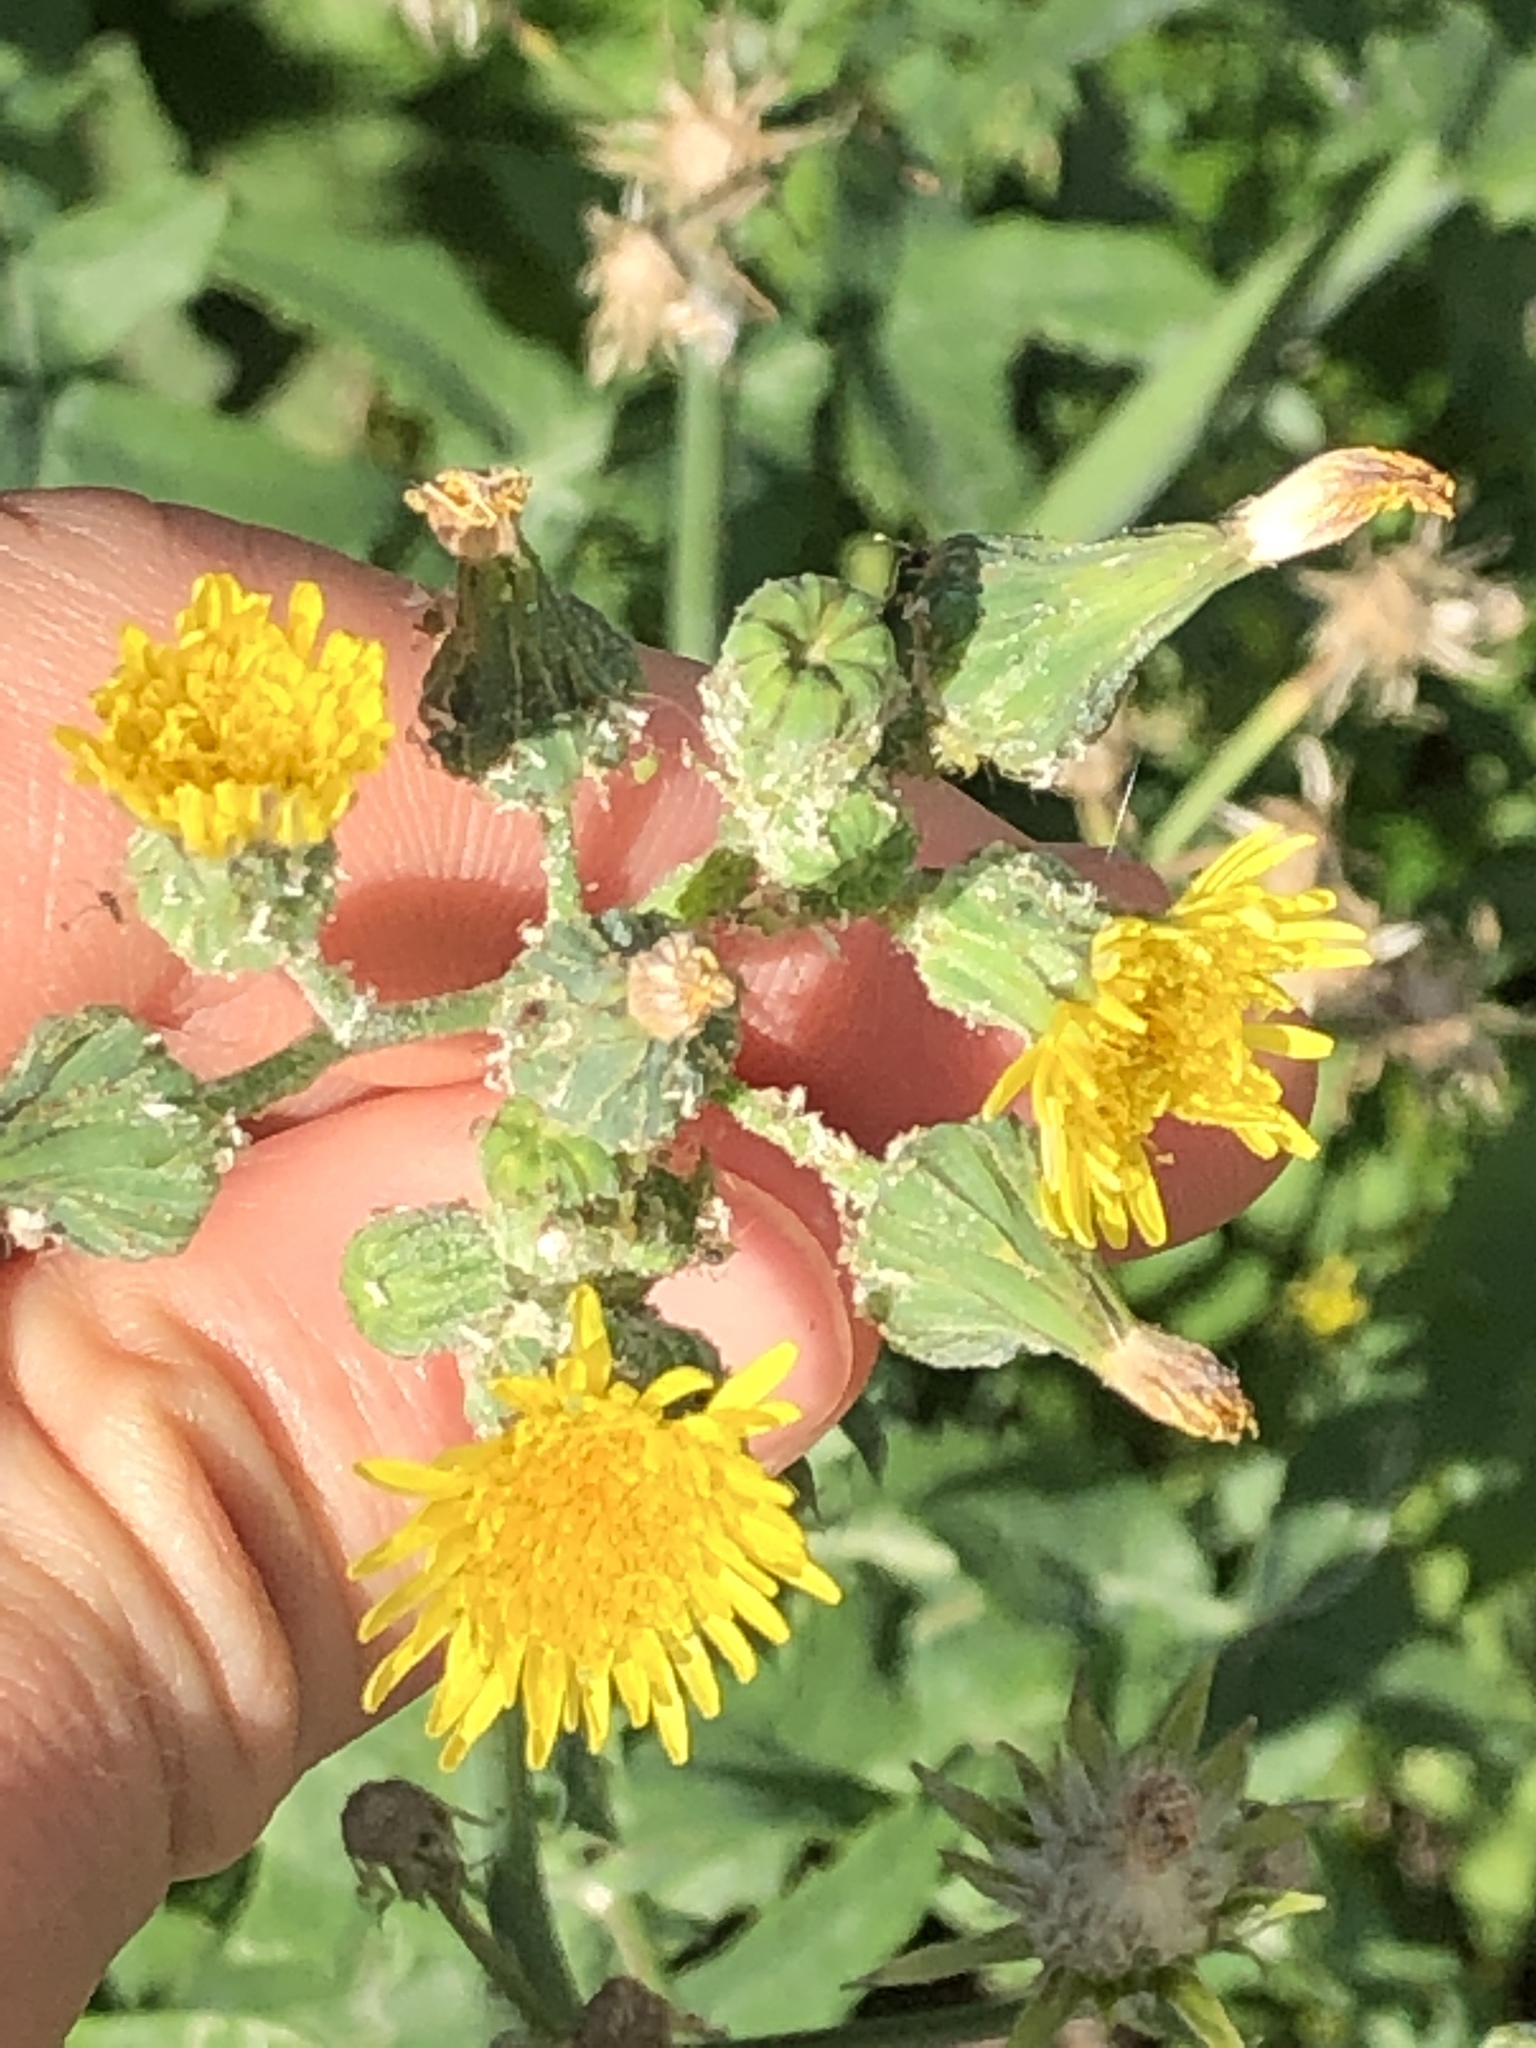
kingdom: Plantae
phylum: Tracheophyta
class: Magnoliopsida
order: Asterales
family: Asteraceae
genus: Sonchus
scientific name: Sonchus oleraceus
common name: Common sowthistle
